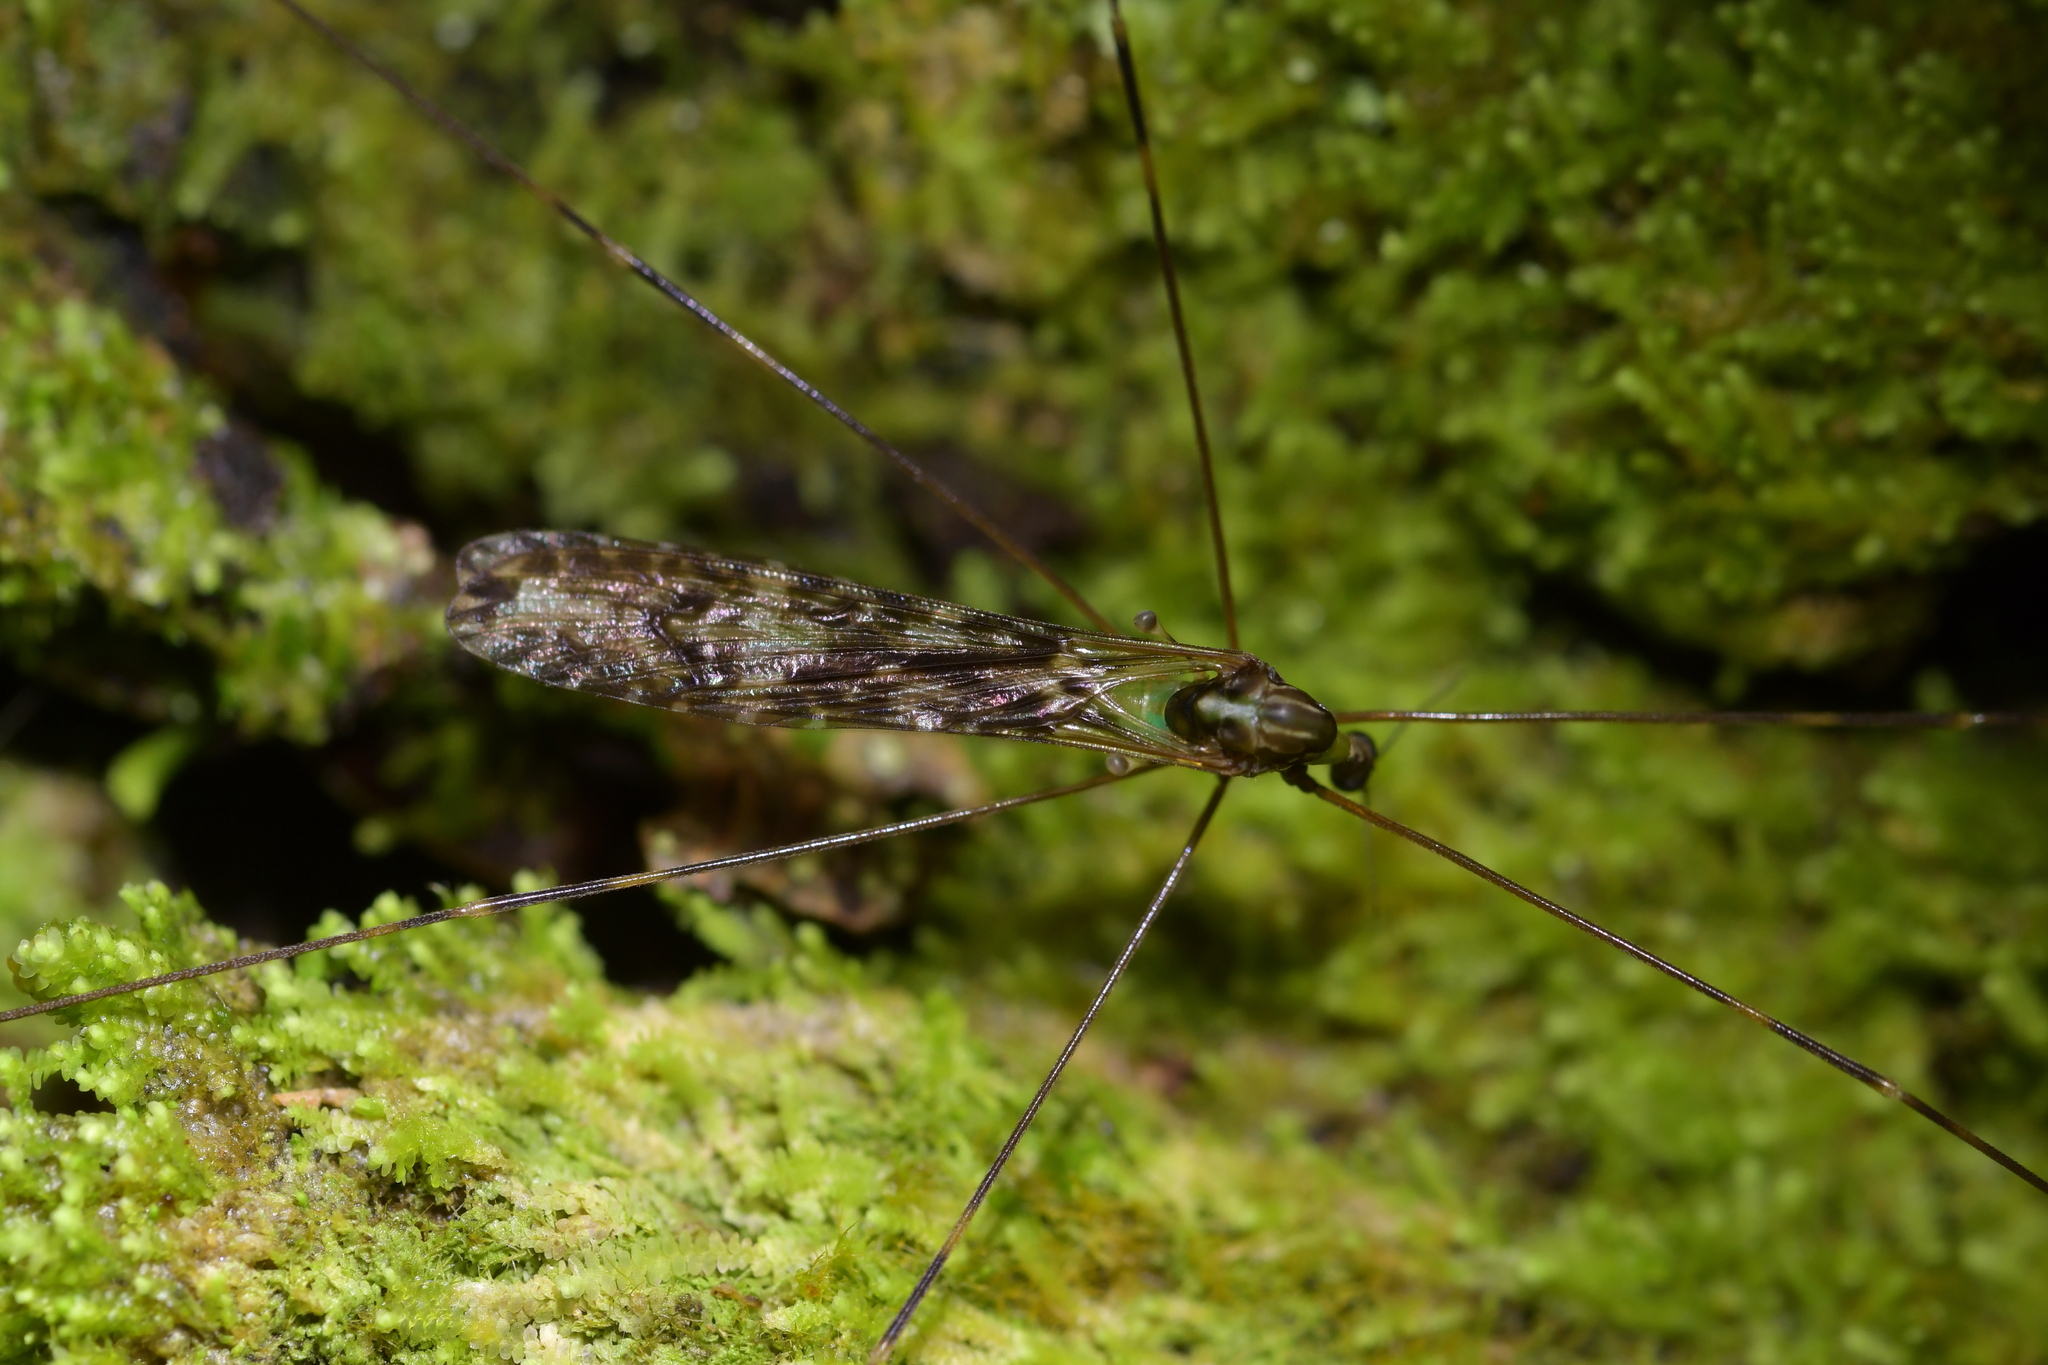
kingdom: Animalia
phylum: Arthropoda
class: Insecta
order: Diptera
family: Limoniidae
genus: Discobola
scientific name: Discobola dohrni
